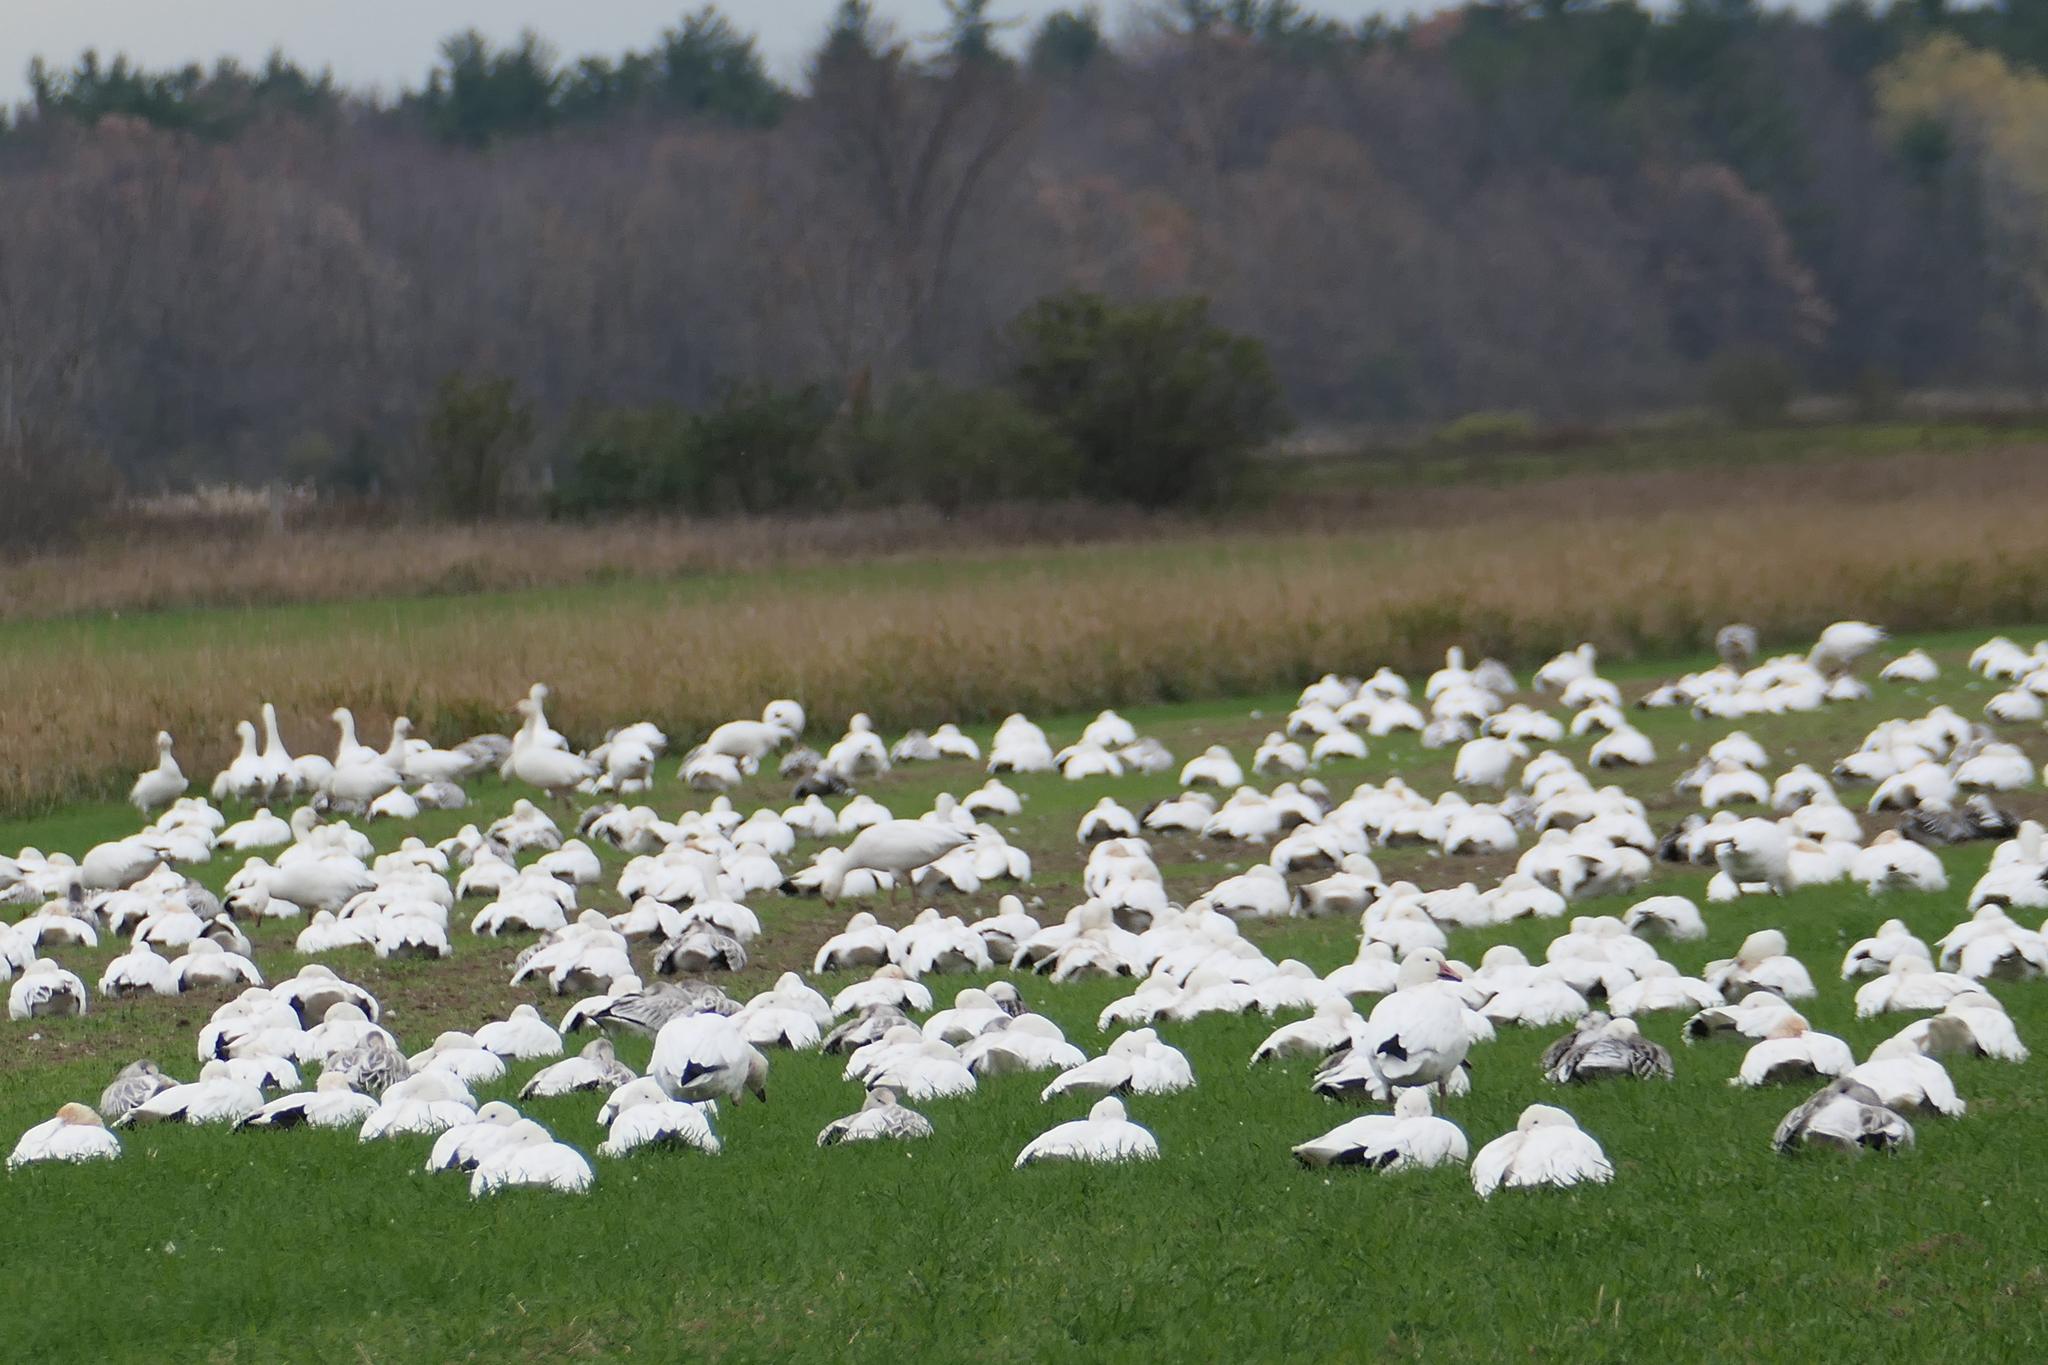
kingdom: Animalia
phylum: Chordata
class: Aves
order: Anseriformes
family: Anatidae
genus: Anser
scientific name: Anser caerulescens
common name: Snow goose
